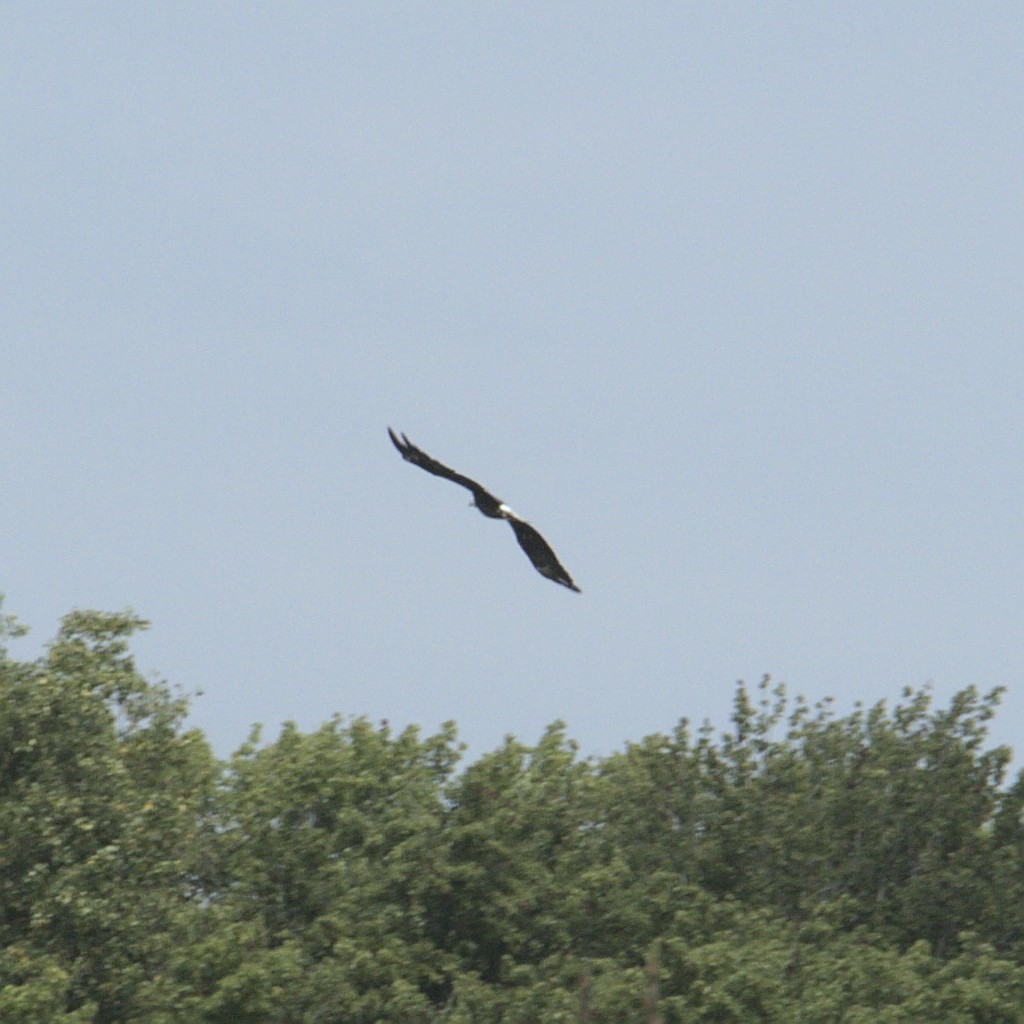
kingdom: Animalia
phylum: Chordata
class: Aves
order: Accipitriformes
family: Accipitridae
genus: Haliaeetus
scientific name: Haliaeetus leucocephalus
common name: Bald eagle
